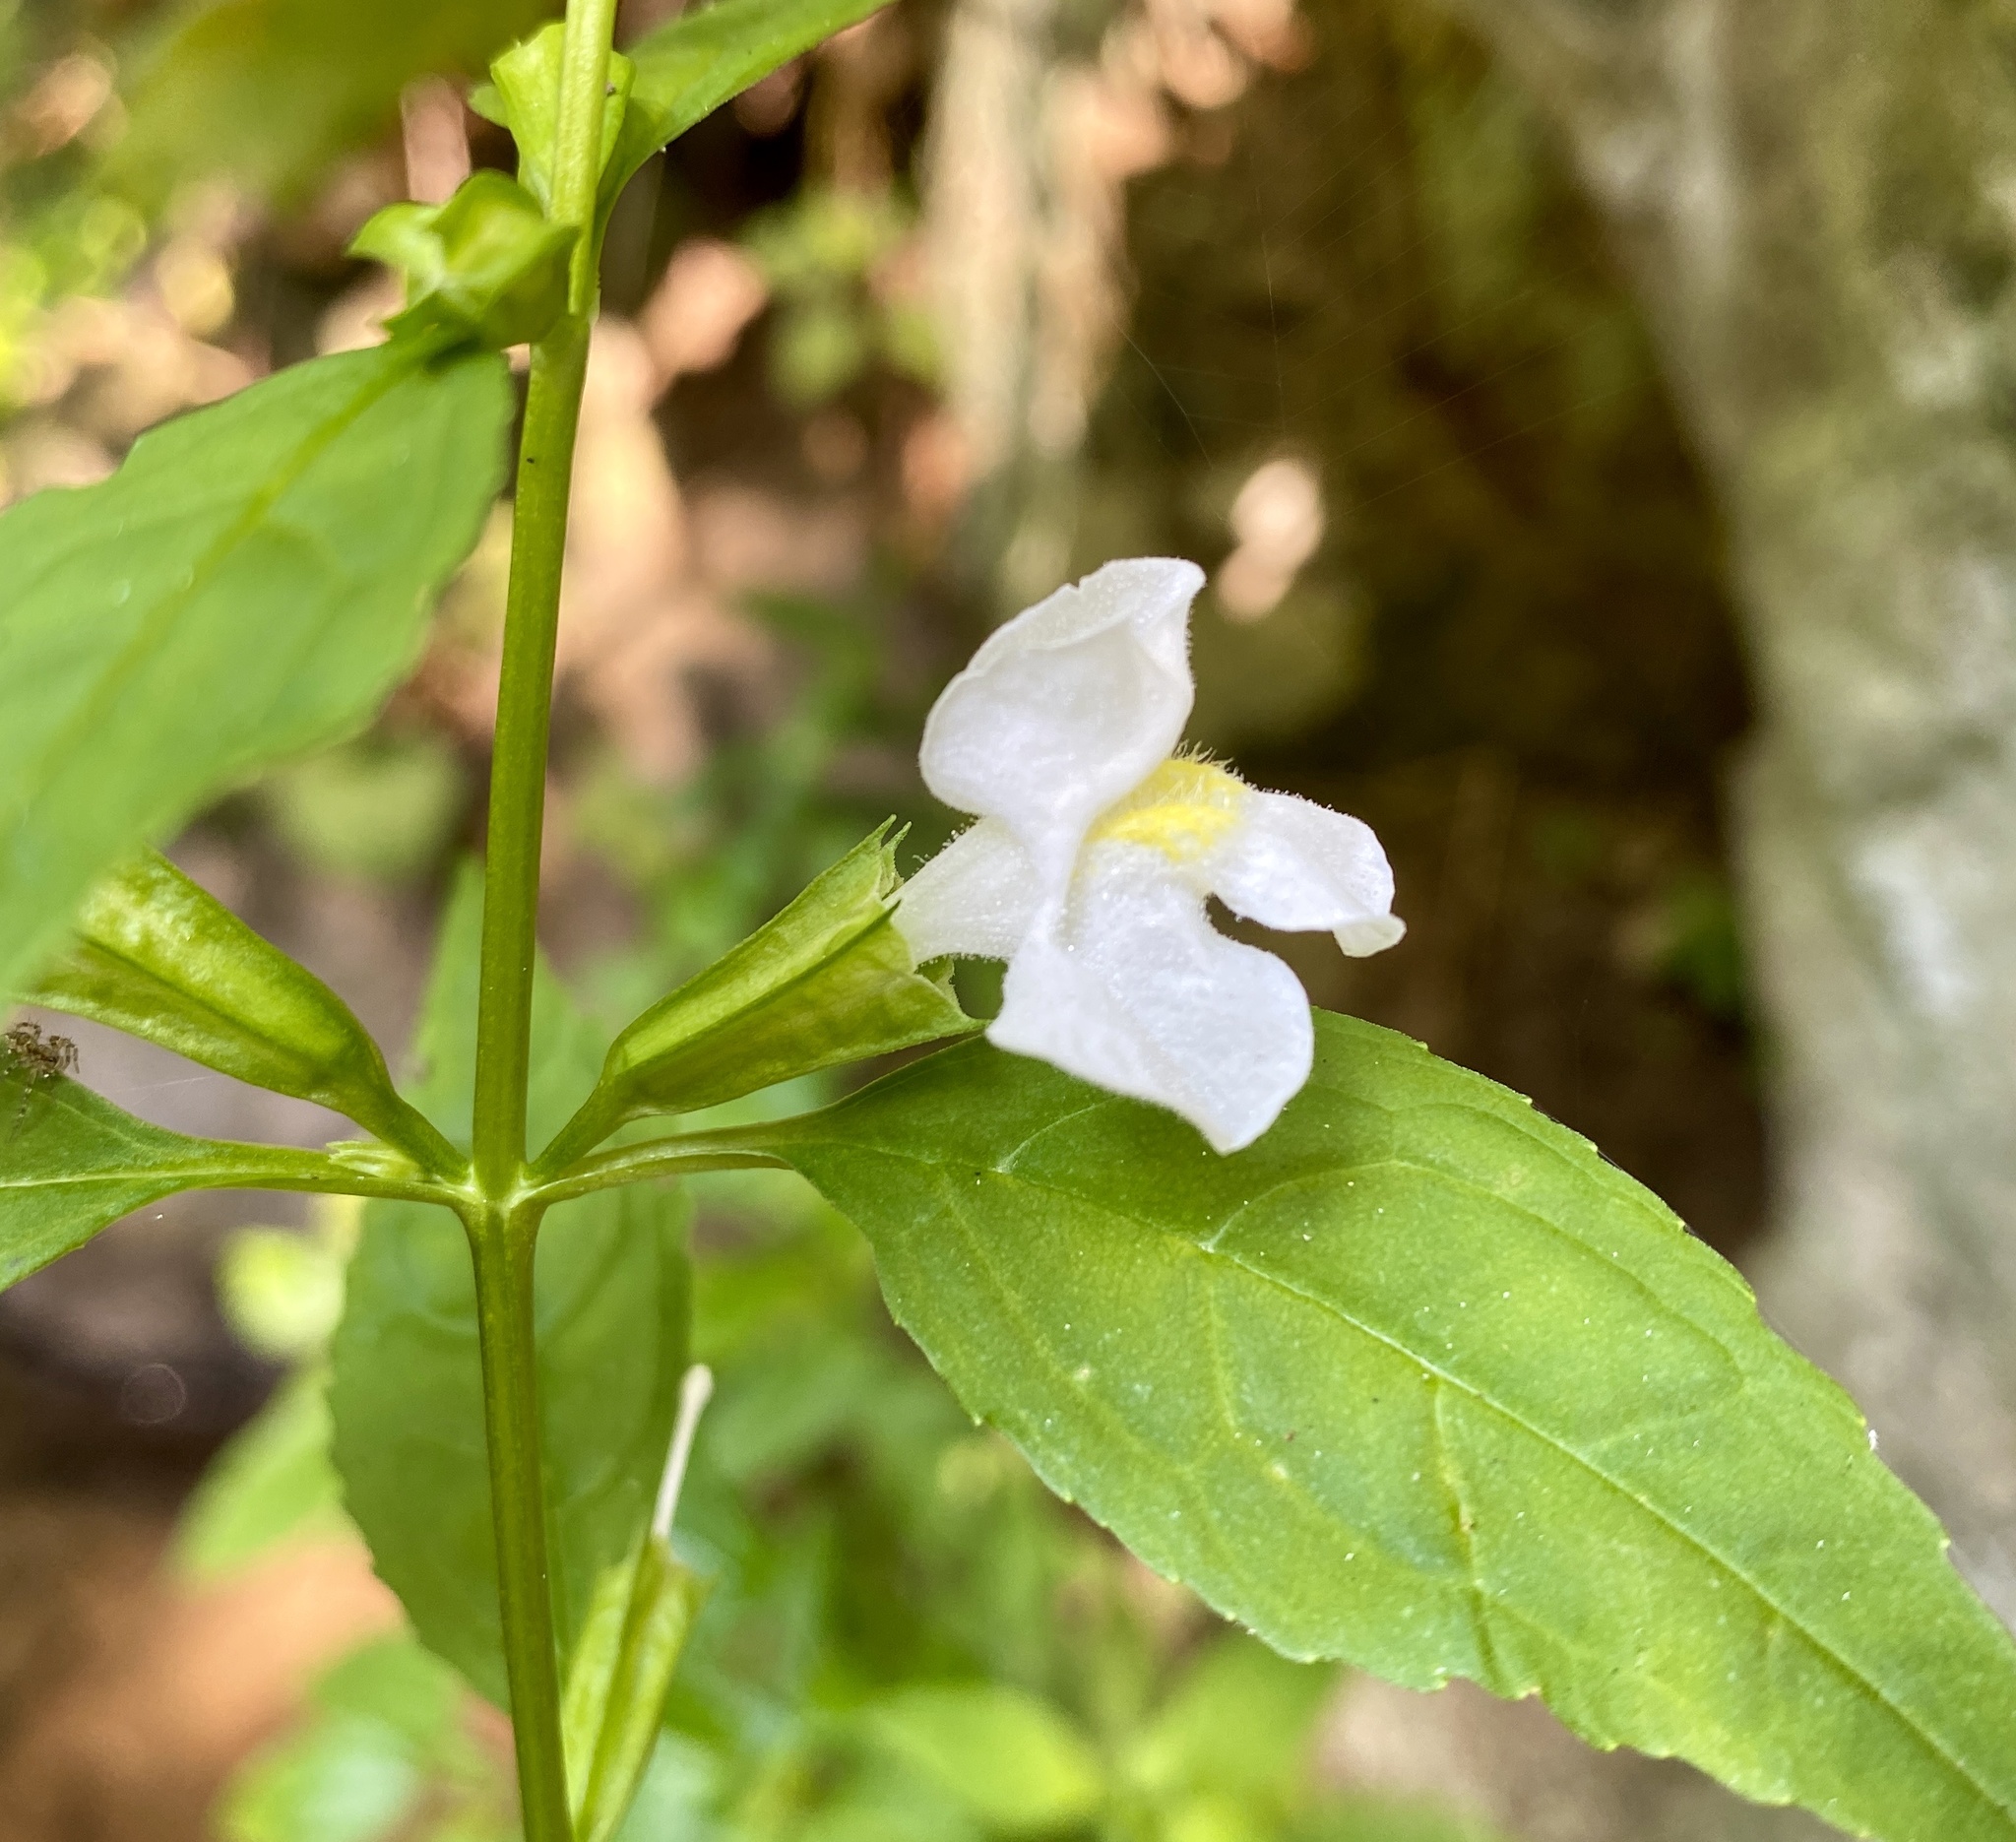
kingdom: Plantae
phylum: Tracheophyta
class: Magnoliopsida
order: Lamiales
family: Phrymaceae
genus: Mimulus
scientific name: Mimulus alatus
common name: Sharp-wing monkey-flower
